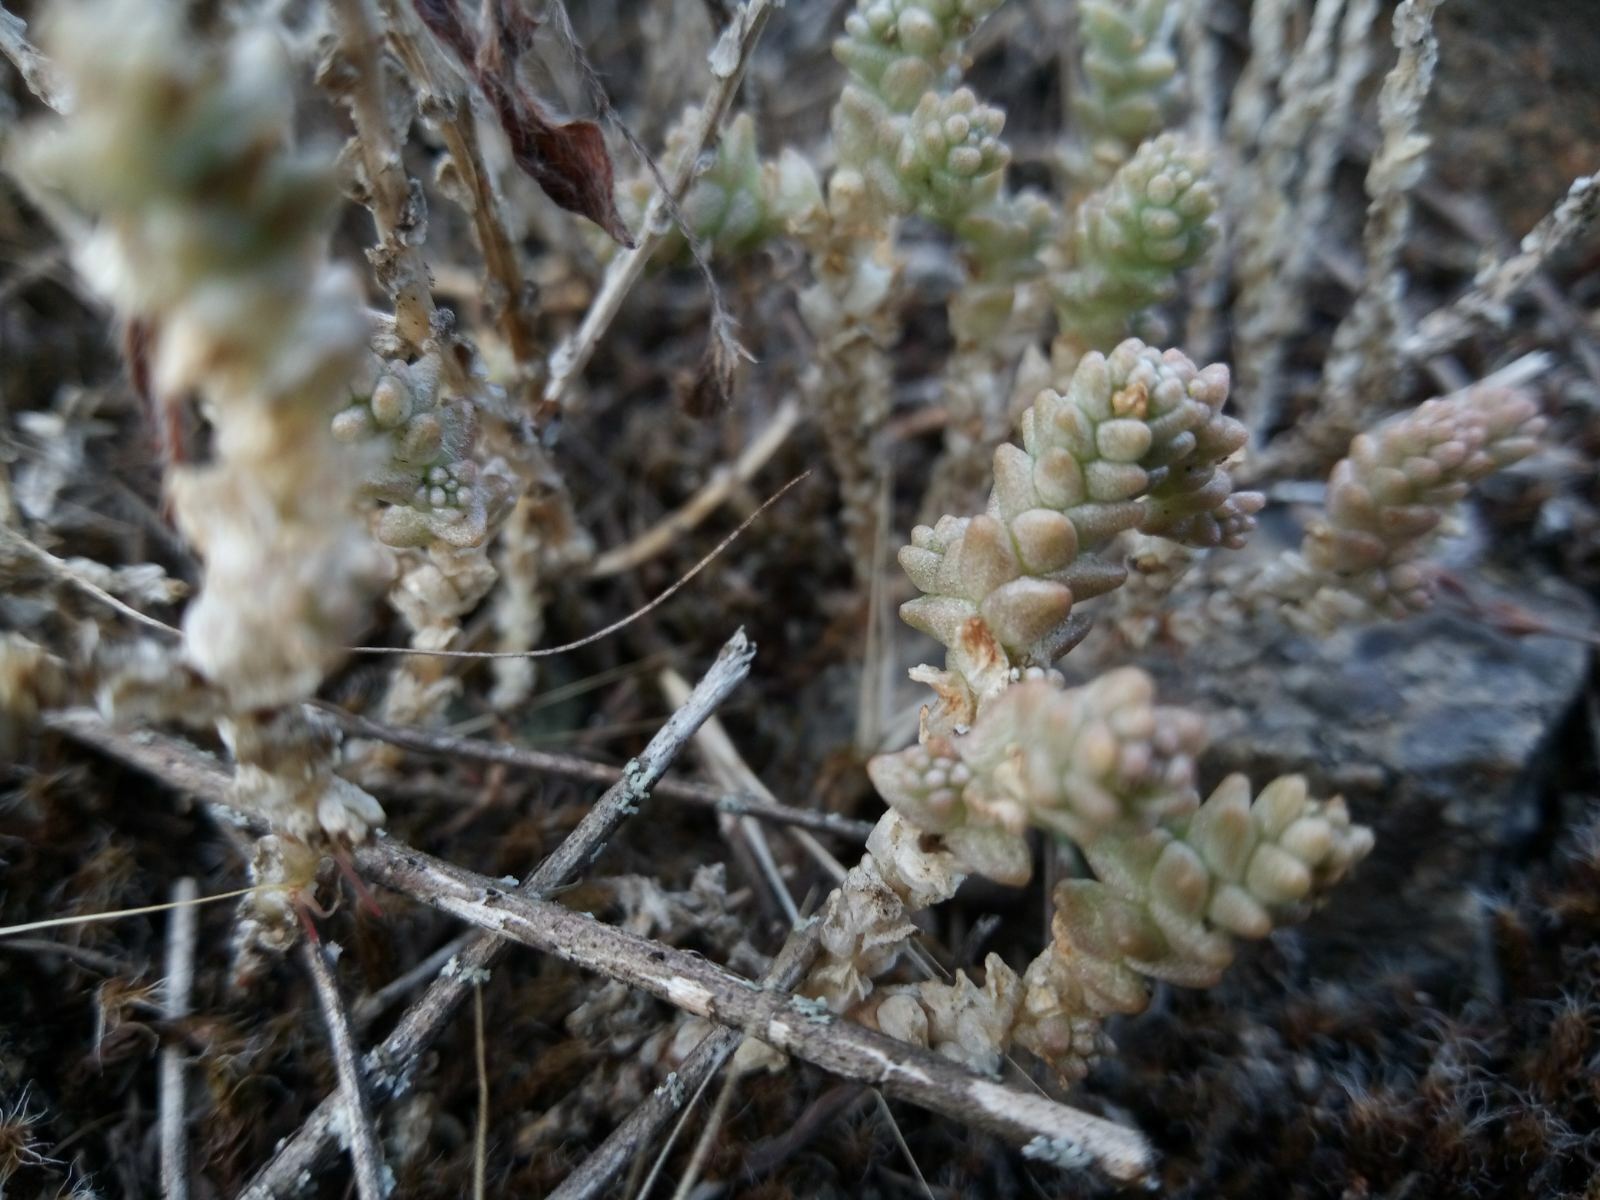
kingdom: Plantae
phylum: Tracheophyta
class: Magnoliopsida
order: Saxifragales
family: Crassulaceae
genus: Sedum
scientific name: Sedum acre
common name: Biting stonecrop
